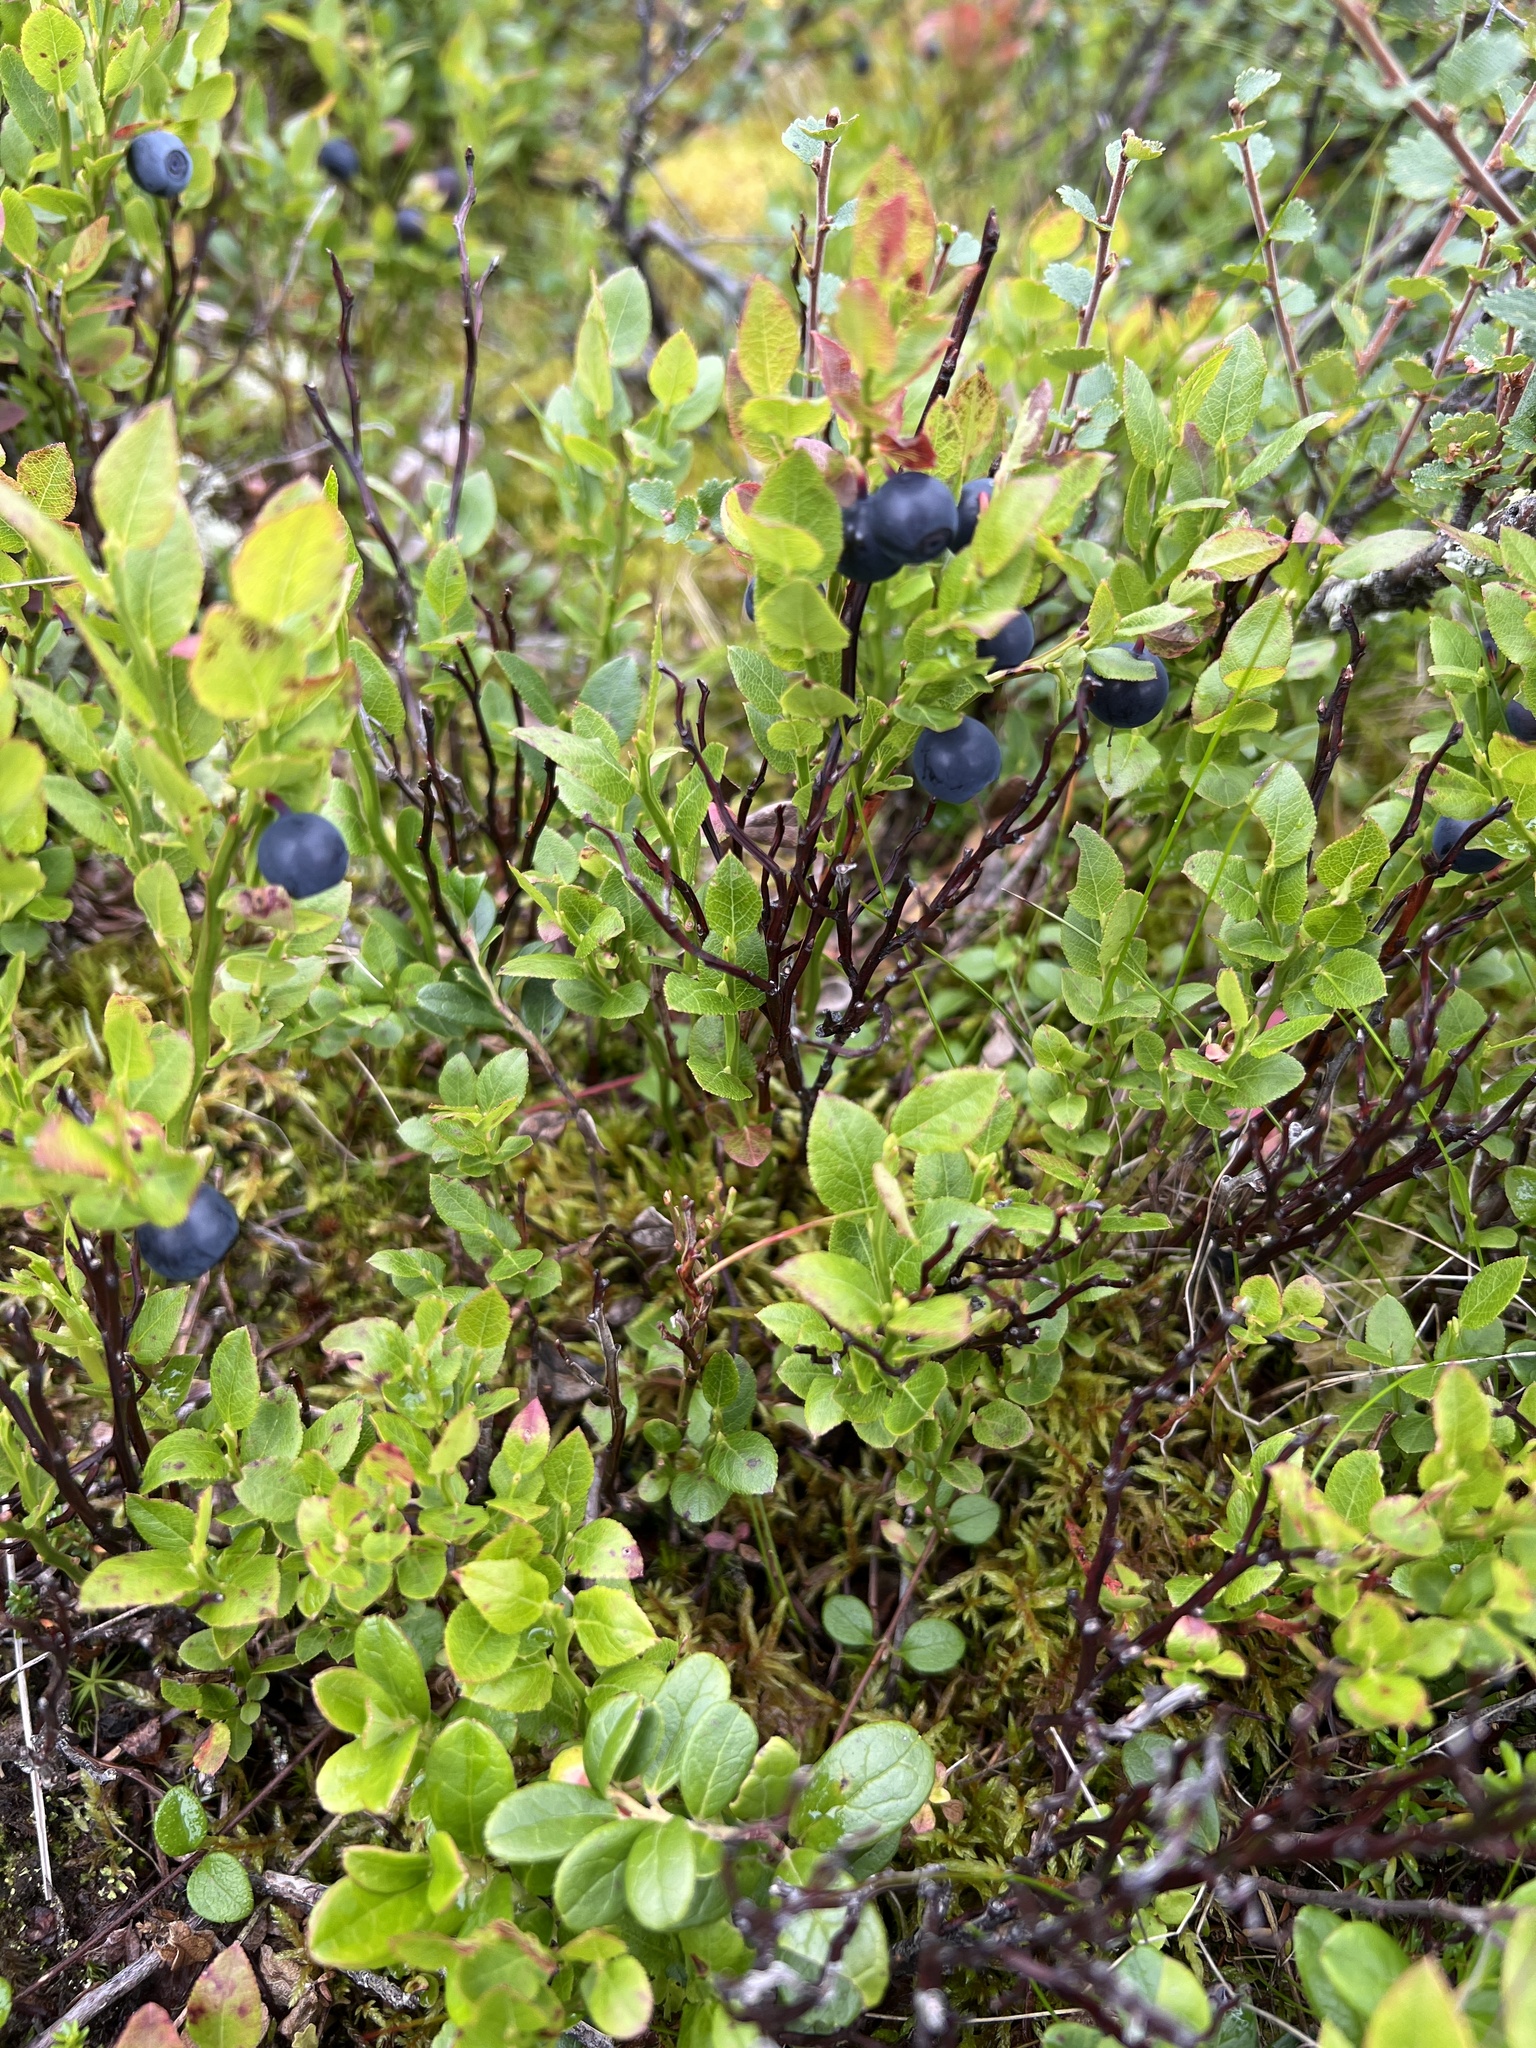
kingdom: Plantae
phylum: Tracheophyta
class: Magnoliopsida
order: Ericales
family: Ericaceae
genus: Vaccinium
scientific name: Vaccinium myrtillus
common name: Bilberry
